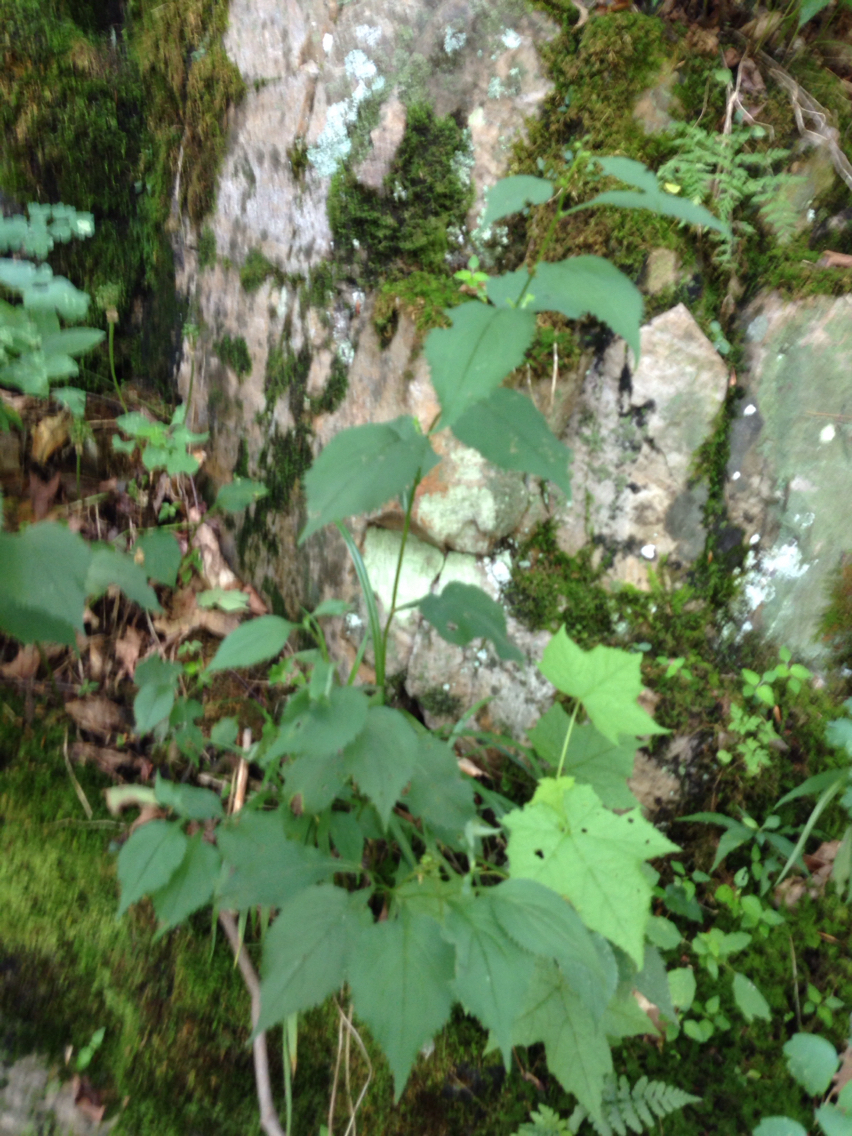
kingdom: Plantae
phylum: Tracheophyta
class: Magnoliopsida
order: Asterales
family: Asteraceae
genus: Solidago
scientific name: Solidago flexicaulis
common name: Zig-zag goldenrod
